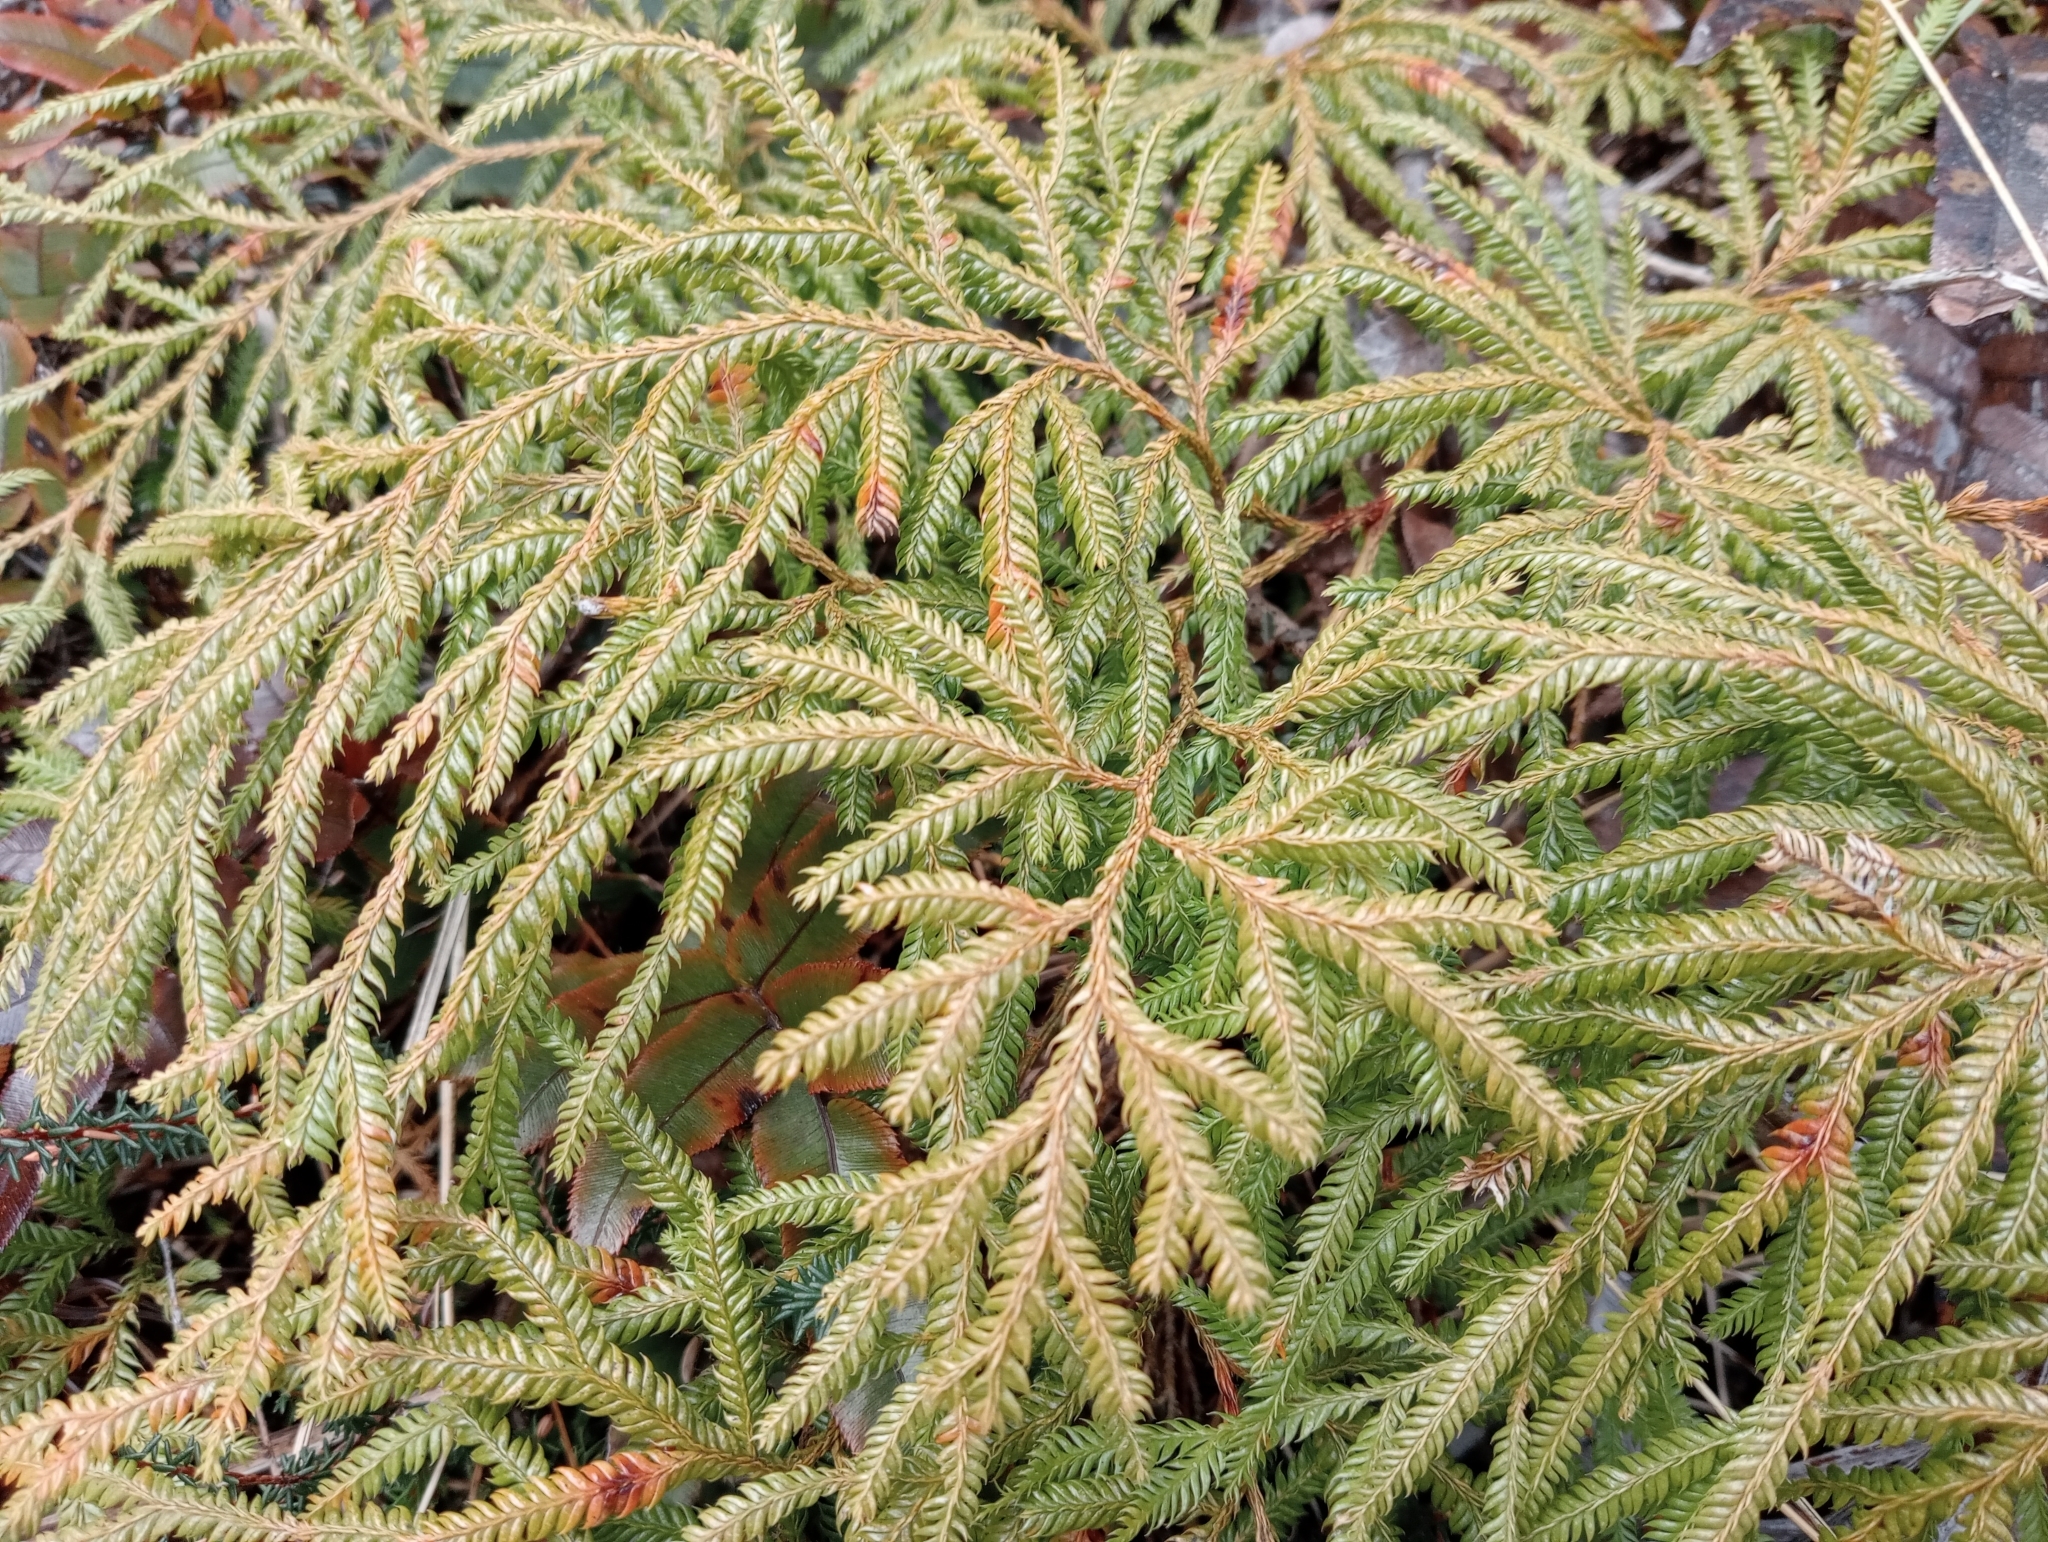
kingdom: Plantae
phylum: Tracheophyta
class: Lycopodiopsida
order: Lycopodiales
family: Lycopodiaceae
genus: Lycopodium
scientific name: Lycopodium volubile
